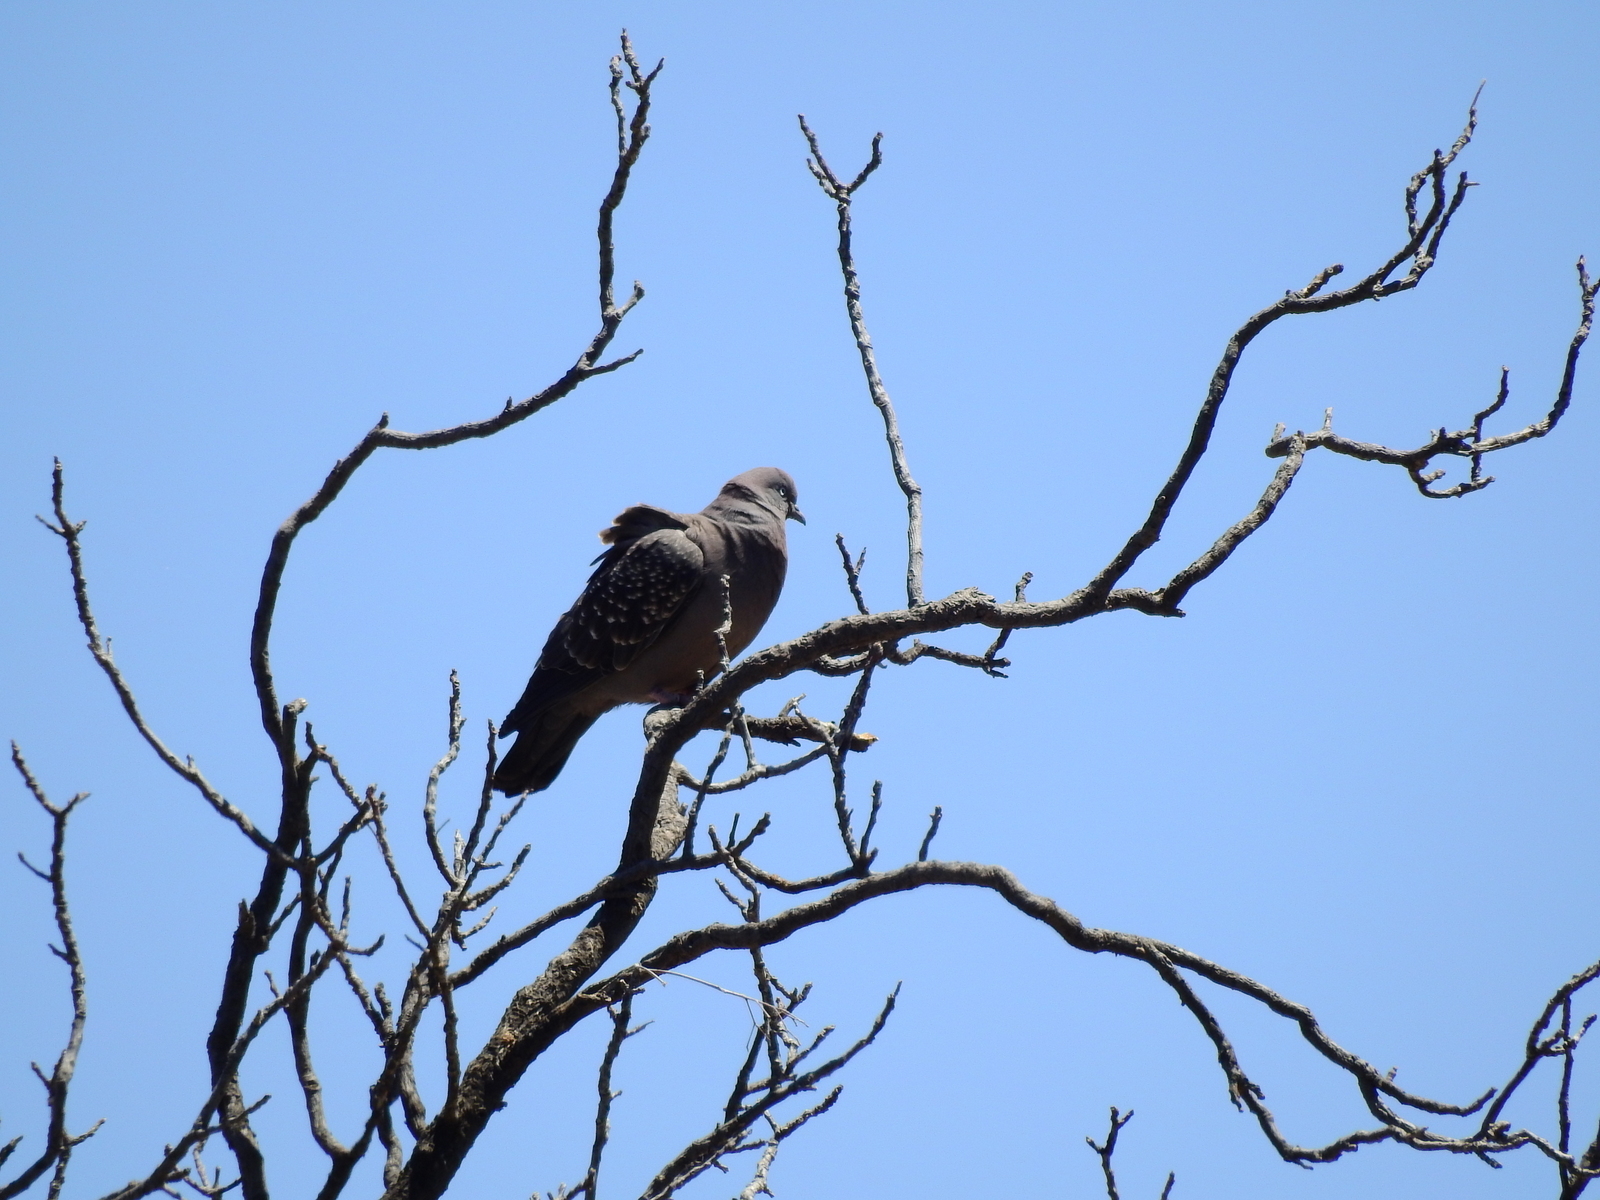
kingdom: Animalia
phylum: Chordata
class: Aves
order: Columbiformes
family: Columbidae
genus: Patagioenas
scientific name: Patagioenas maculosa
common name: Spot-winged pigeon
